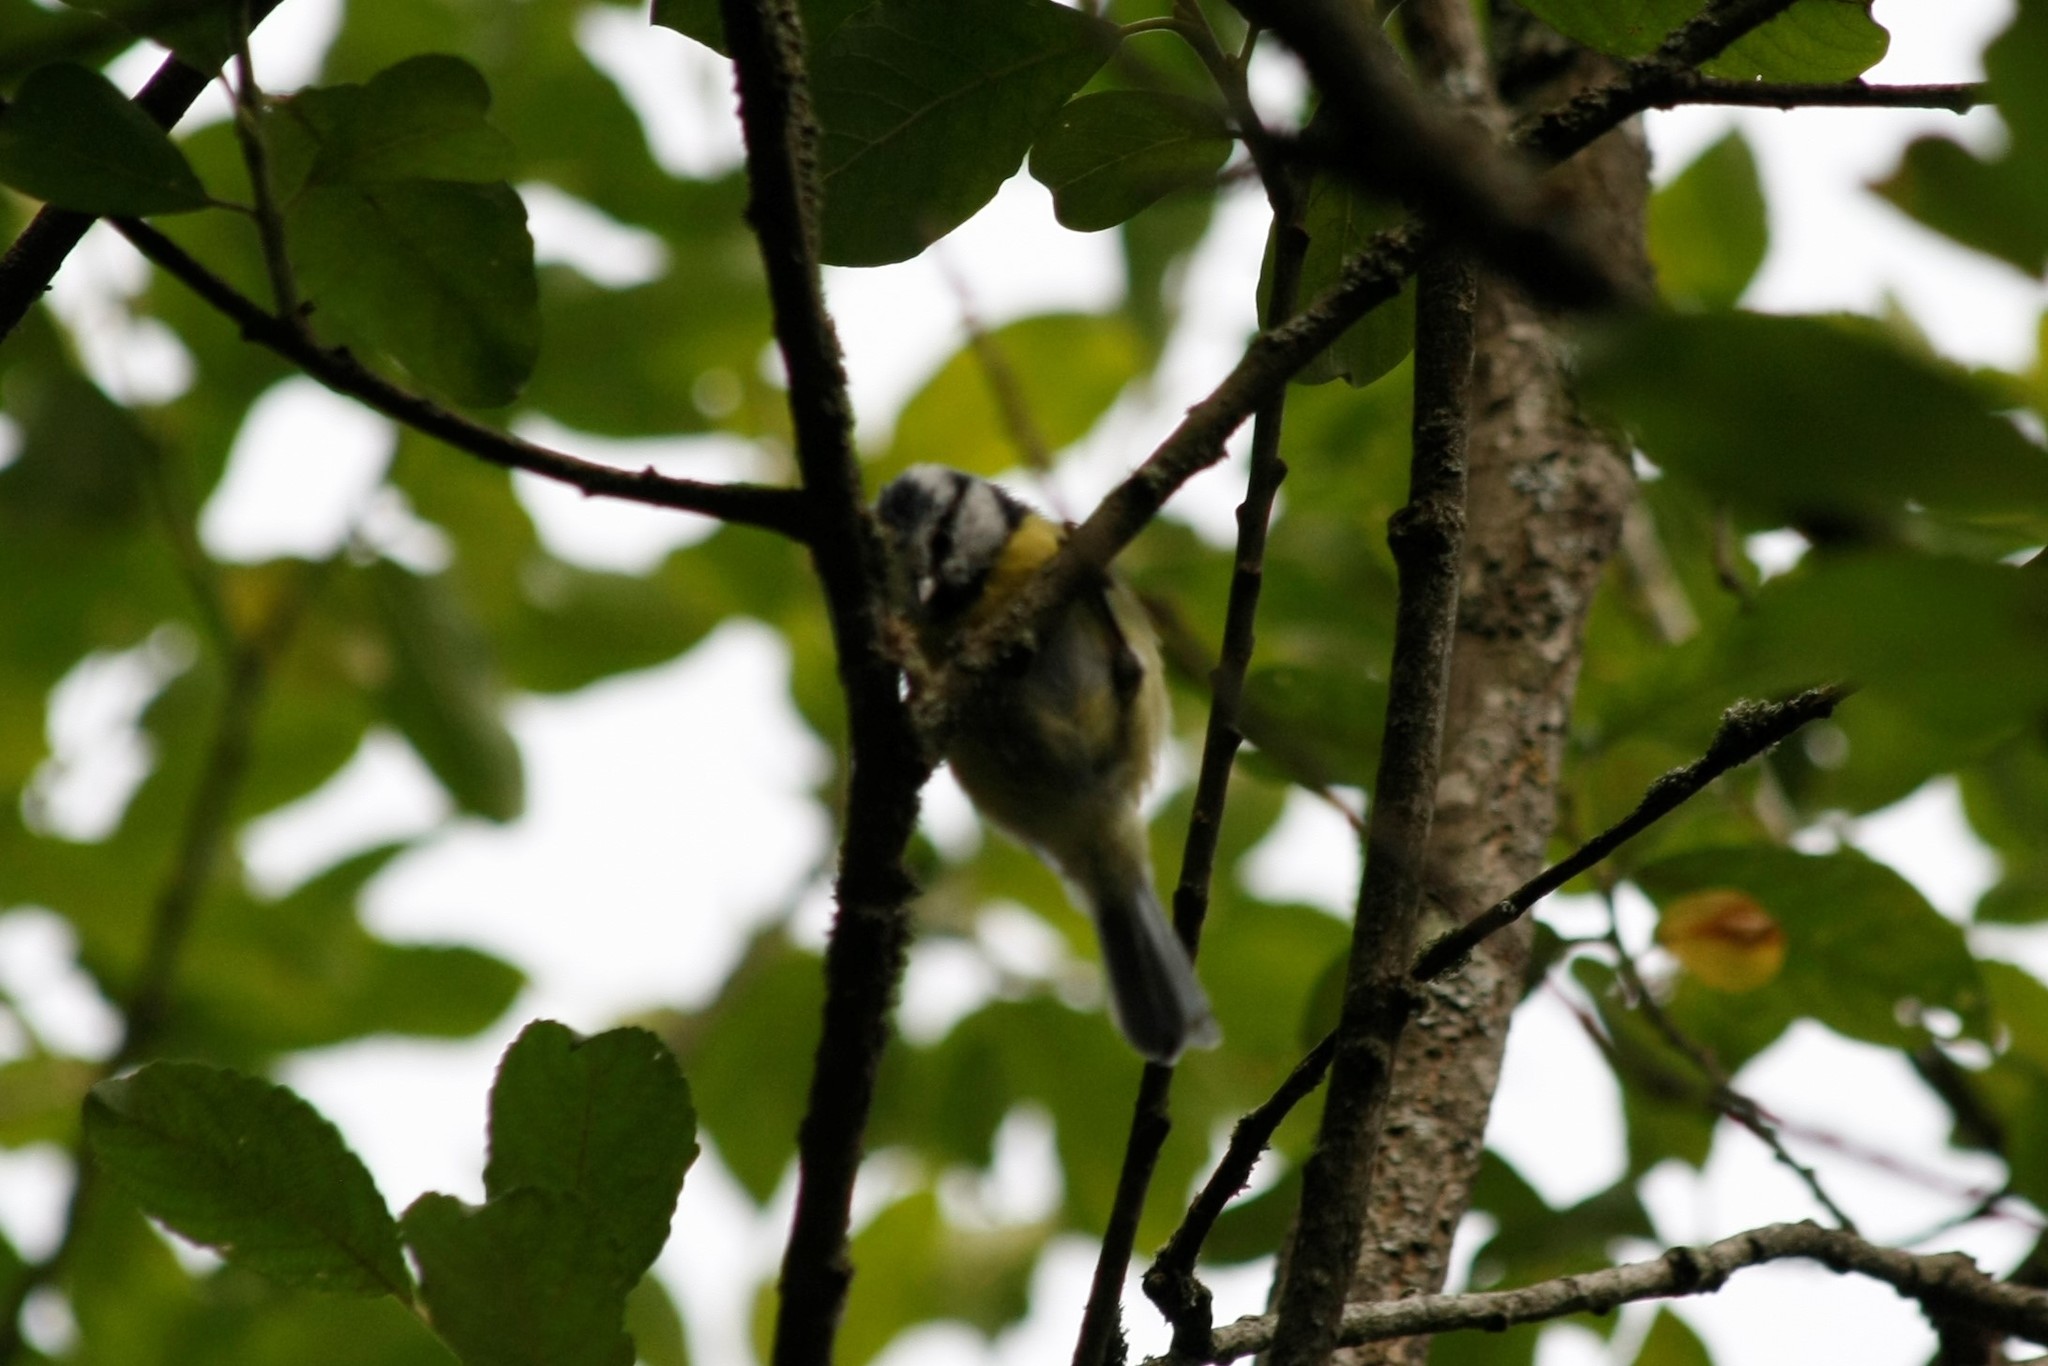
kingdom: Animalia
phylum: Chordata
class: Aves
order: Passeriformes
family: Paridae
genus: Cyanistes
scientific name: Cyanistes caeruleus
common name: Eurasian blue tit
